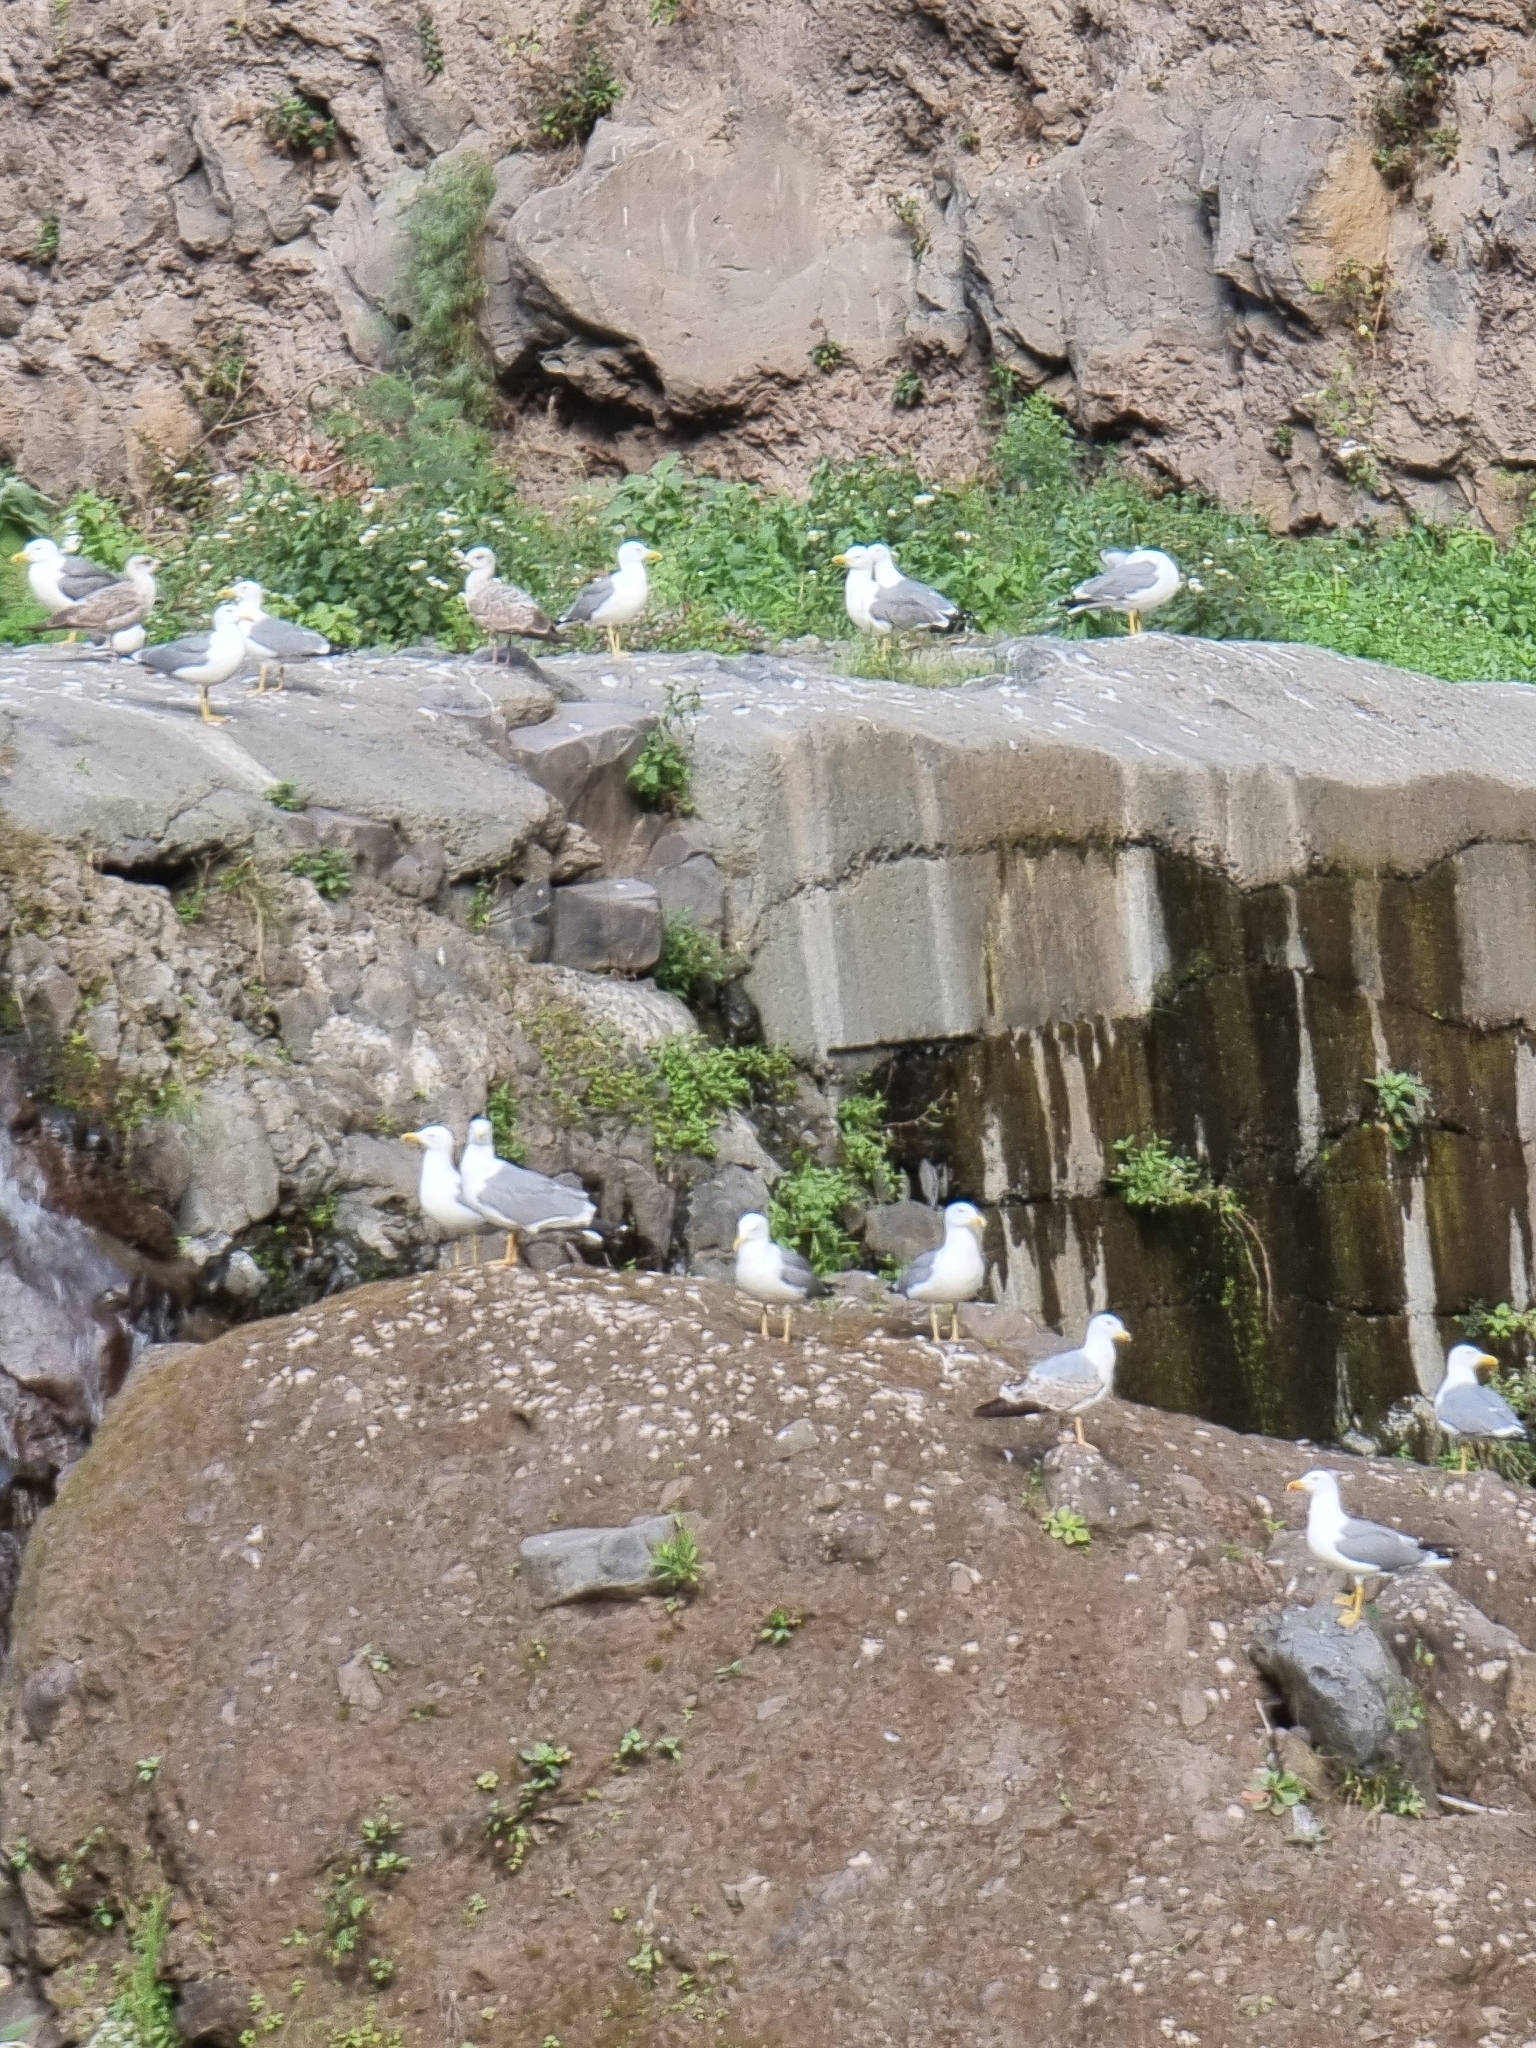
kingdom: Animalia
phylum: Chordata
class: Aves
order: Charadriiformes
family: Laridae
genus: Larus
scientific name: Larus michahellis
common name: Yellow-legged gull
